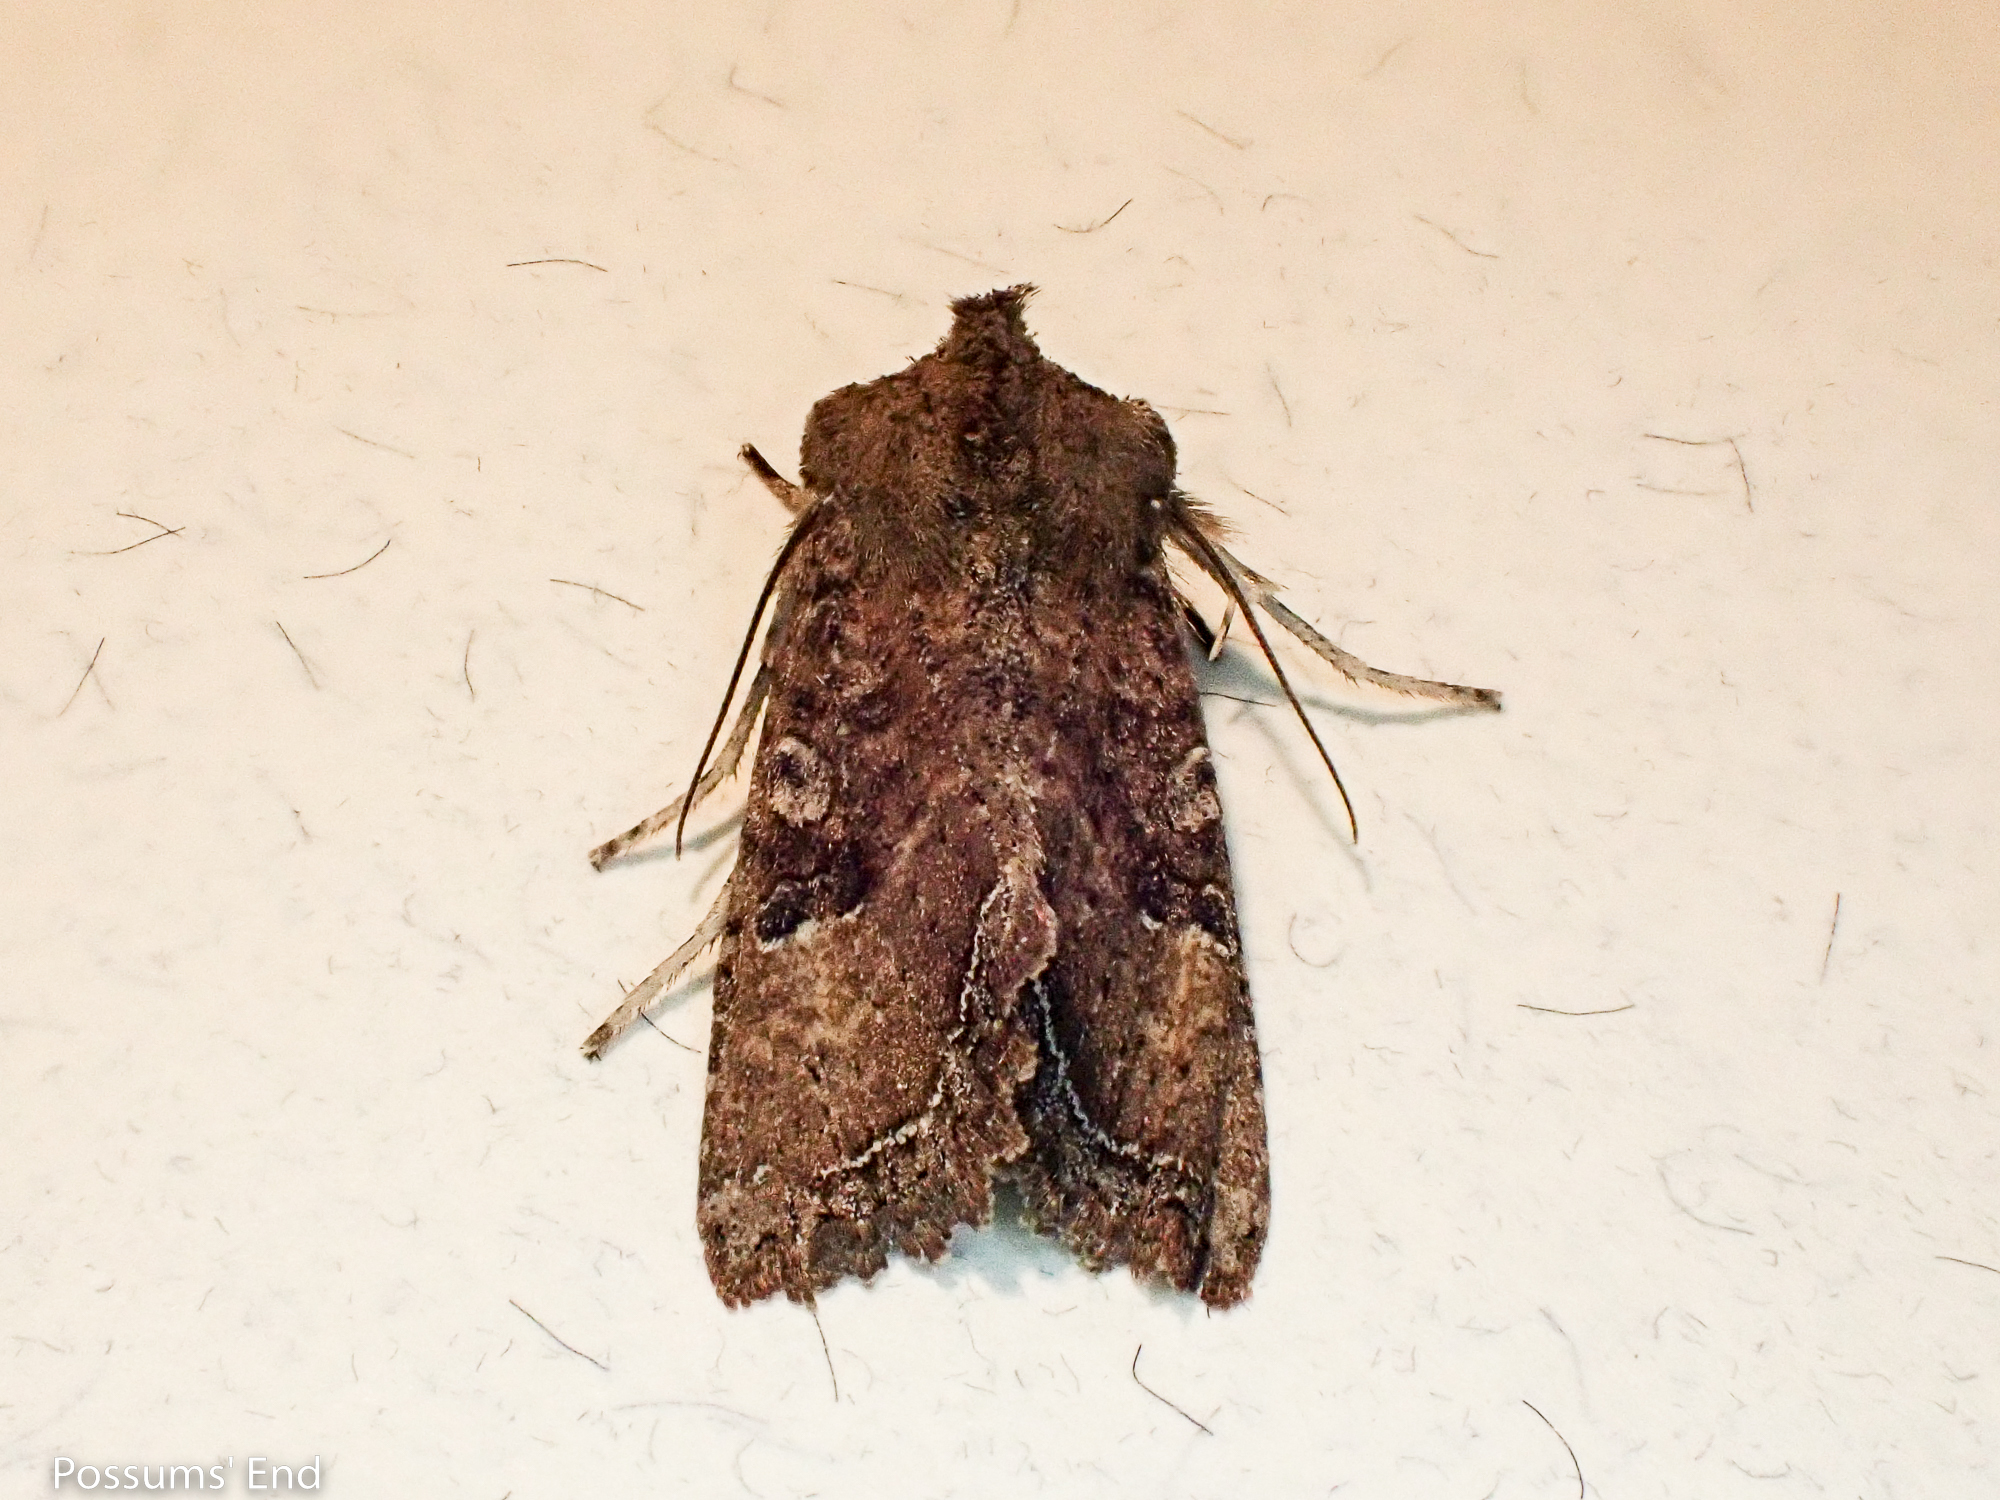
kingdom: Animalia
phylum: Arthropoda
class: Insecta
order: Lepidoptera
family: Noctuidae
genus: Meterana
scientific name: Meterana inchoata
